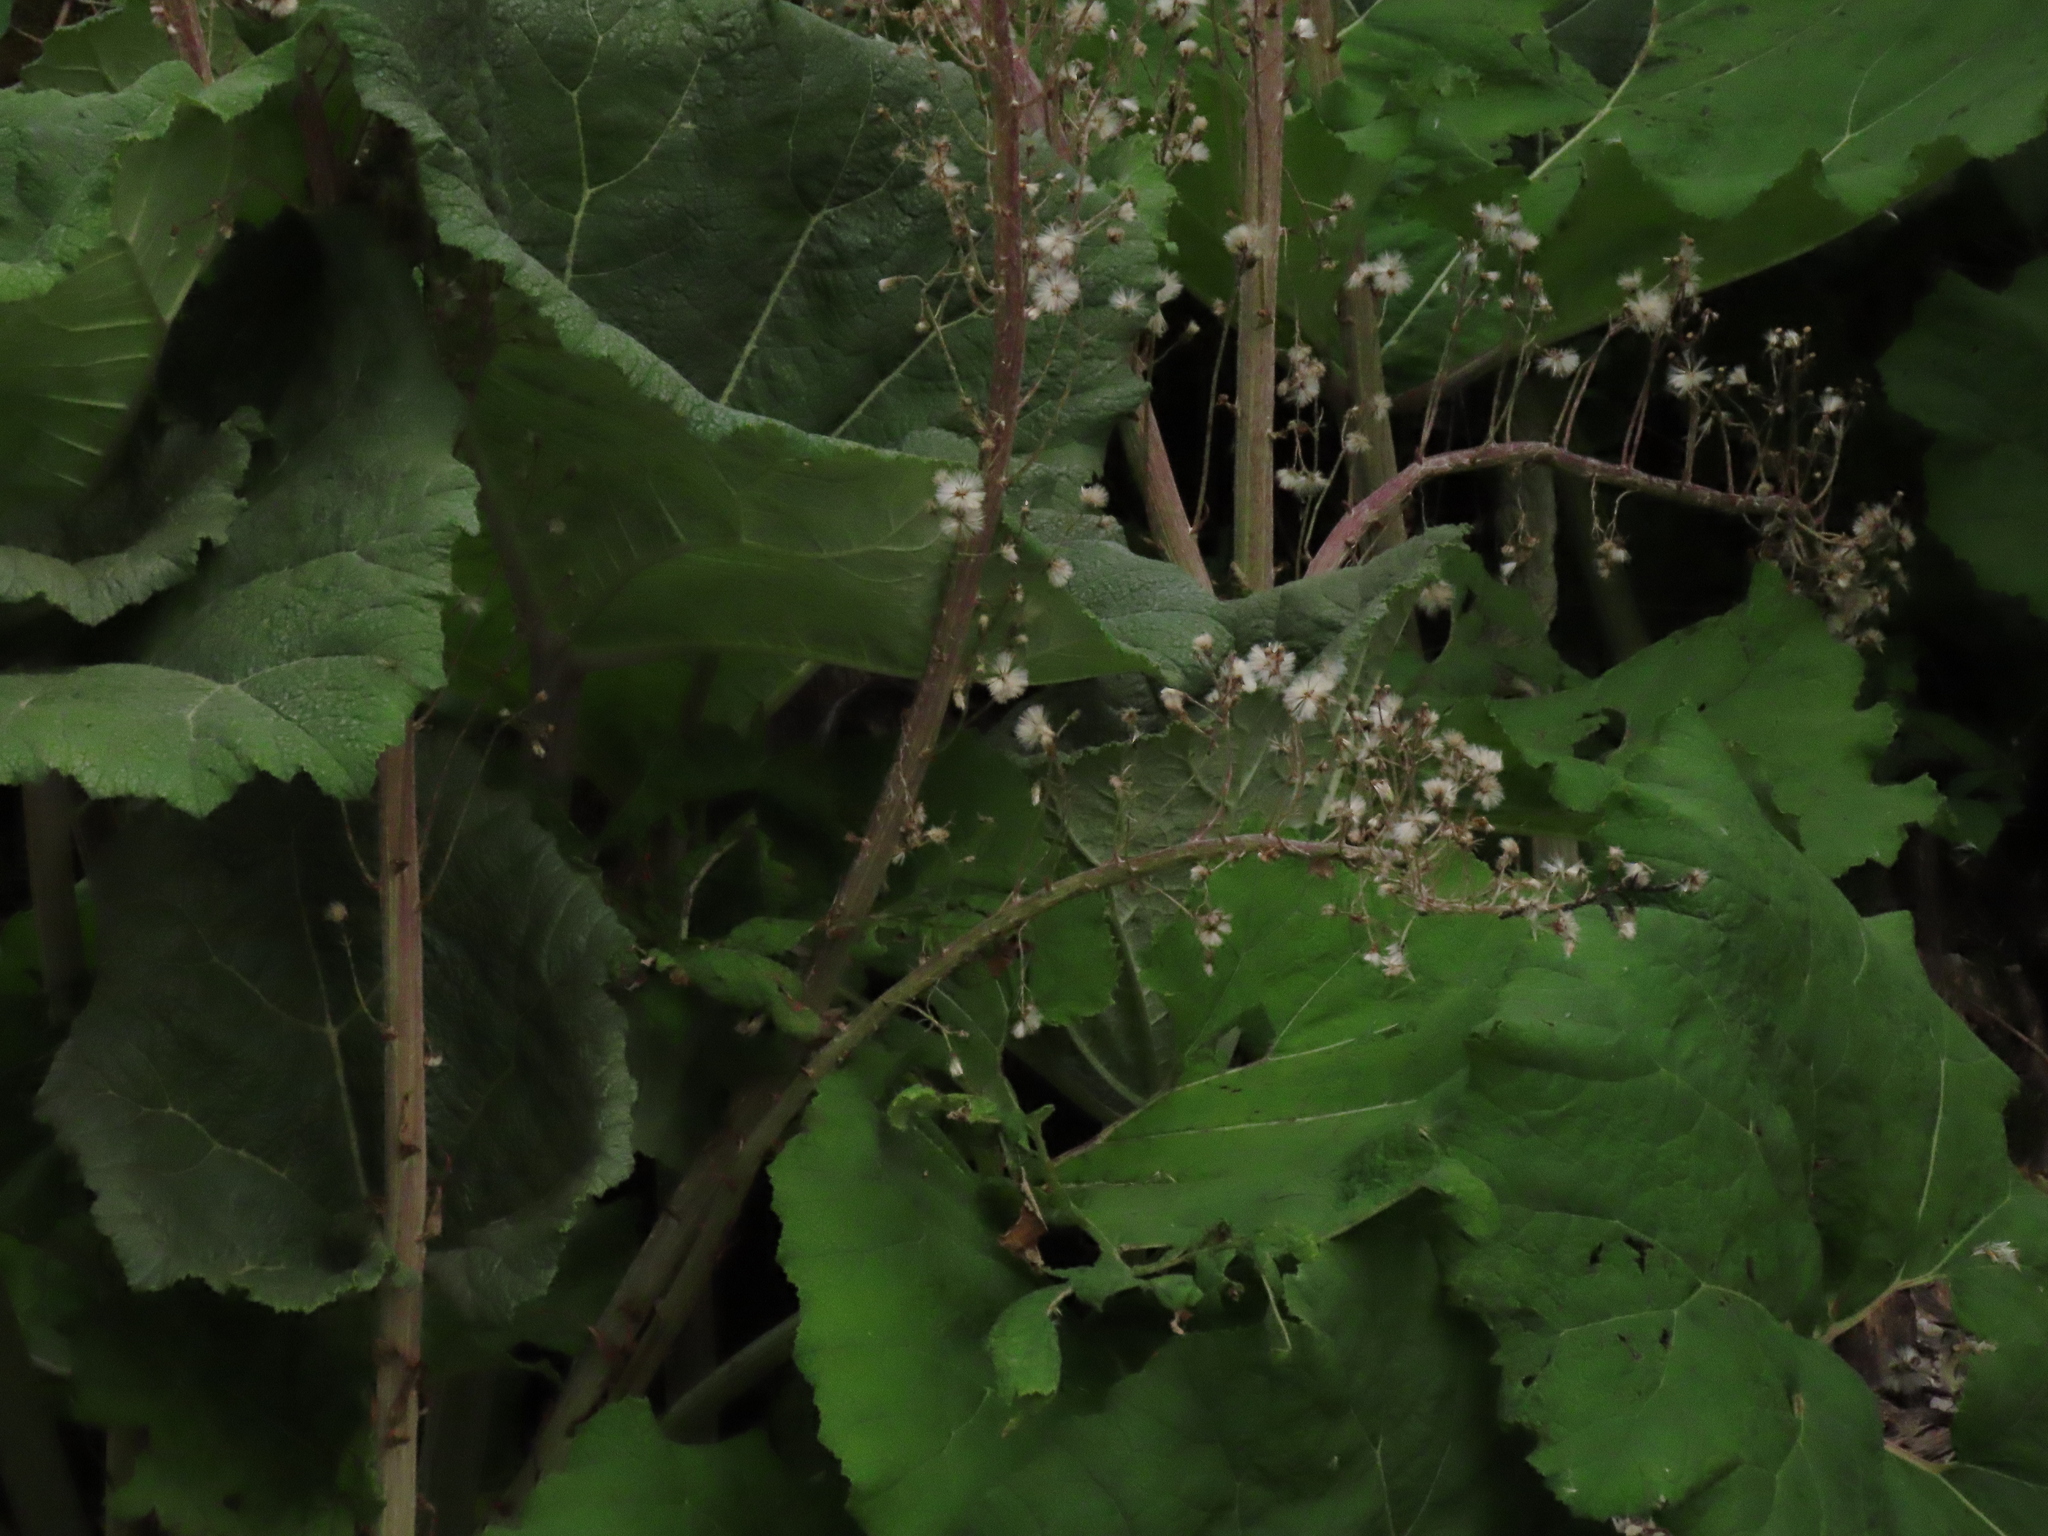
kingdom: Plantae
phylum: Tracheophyta
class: Magnoliopsida
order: Asterales
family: Asteraceae
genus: Petasites
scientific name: Petasites hybridus
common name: Butterbur
